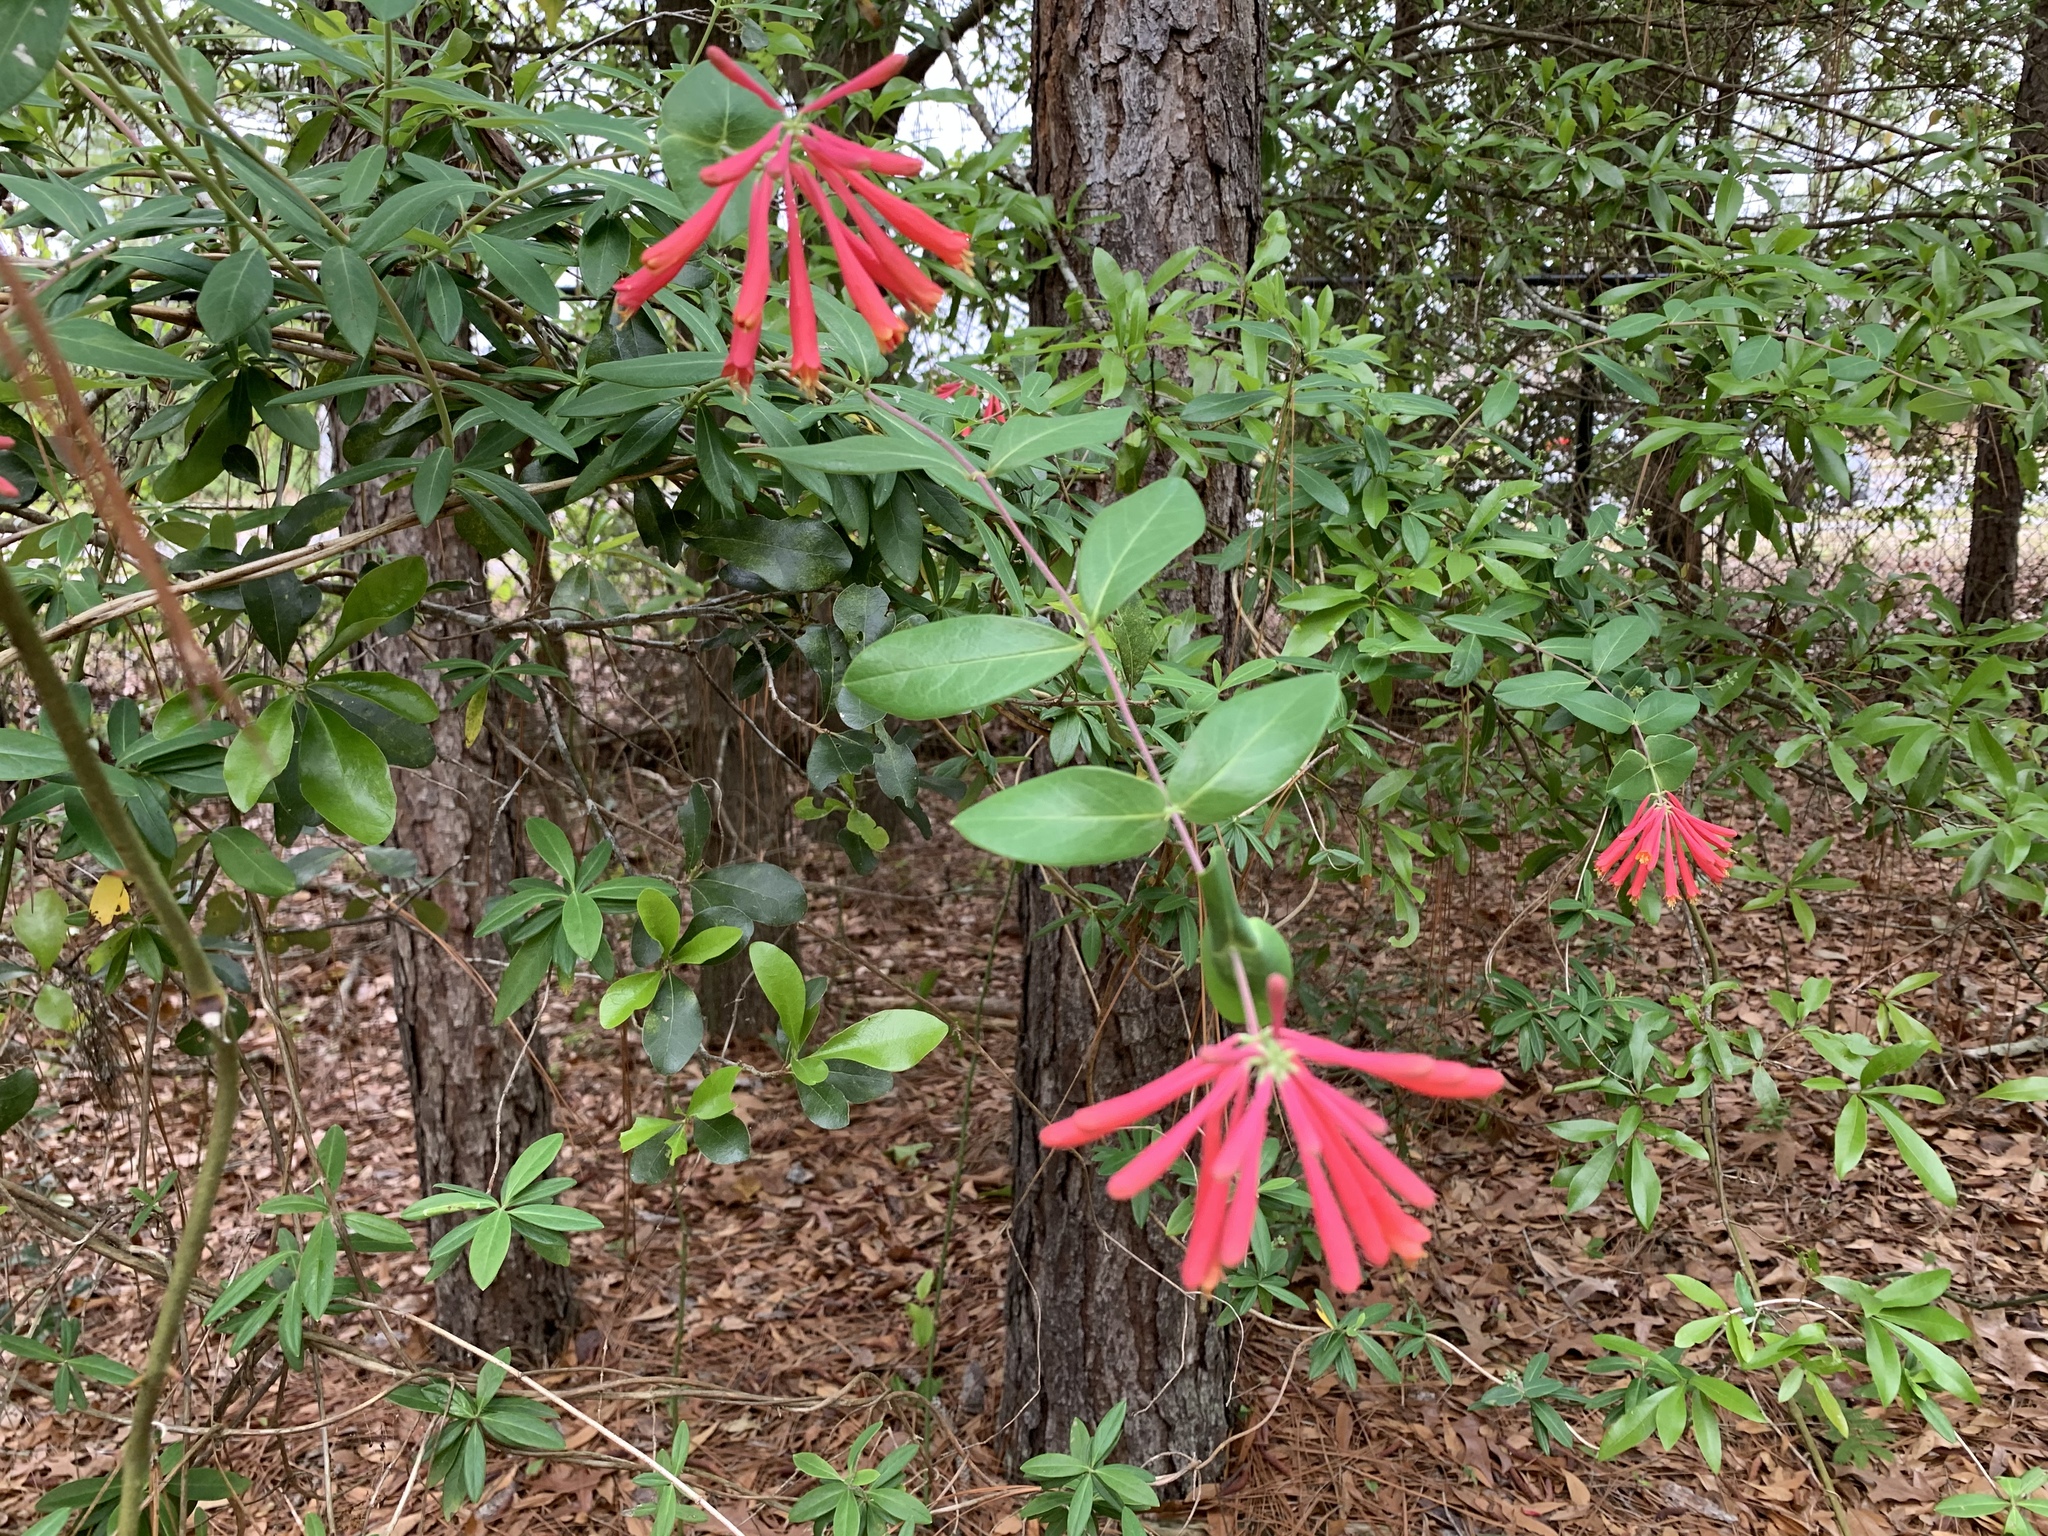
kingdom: Plantae
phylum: Tracheophyta
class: Magnoliopsida
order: Dipsacales
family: Caprifoliaceae
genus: Lonicera
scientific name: Lonicera sempervirens
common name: Coral honeysuckle
